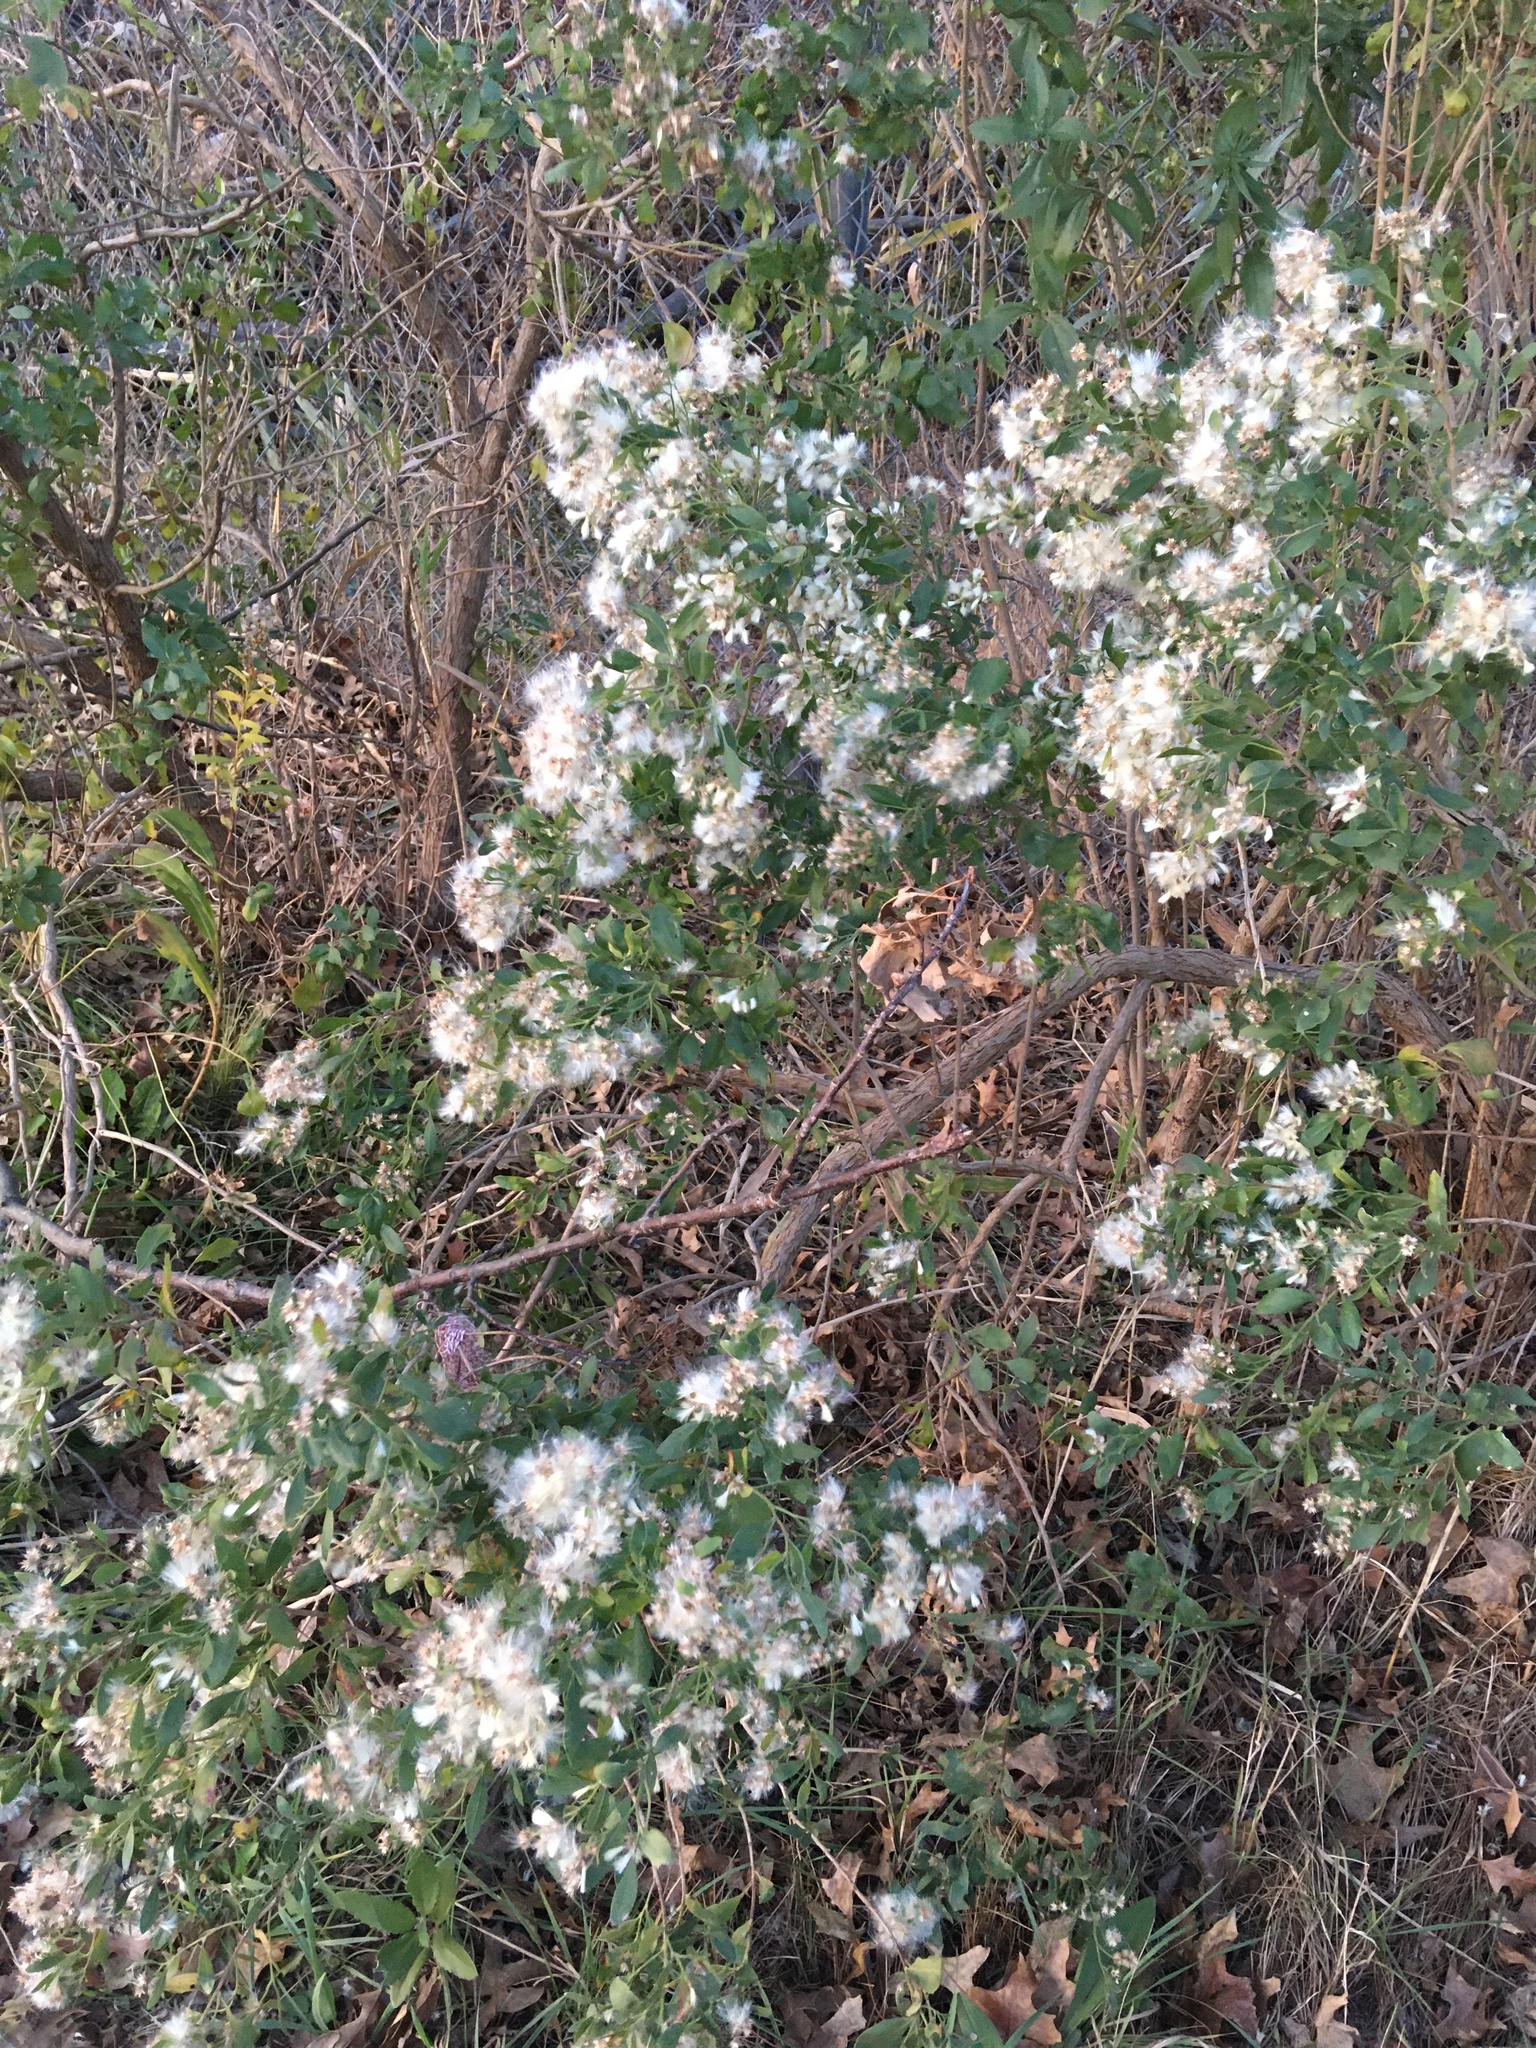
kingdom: Plantae
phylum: Tracheophyta
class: Magnoliopsida
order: Asterales
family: Asteraceae
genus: Baccharis
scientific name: Baccharis halimifolia
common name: Eastern baccharis
